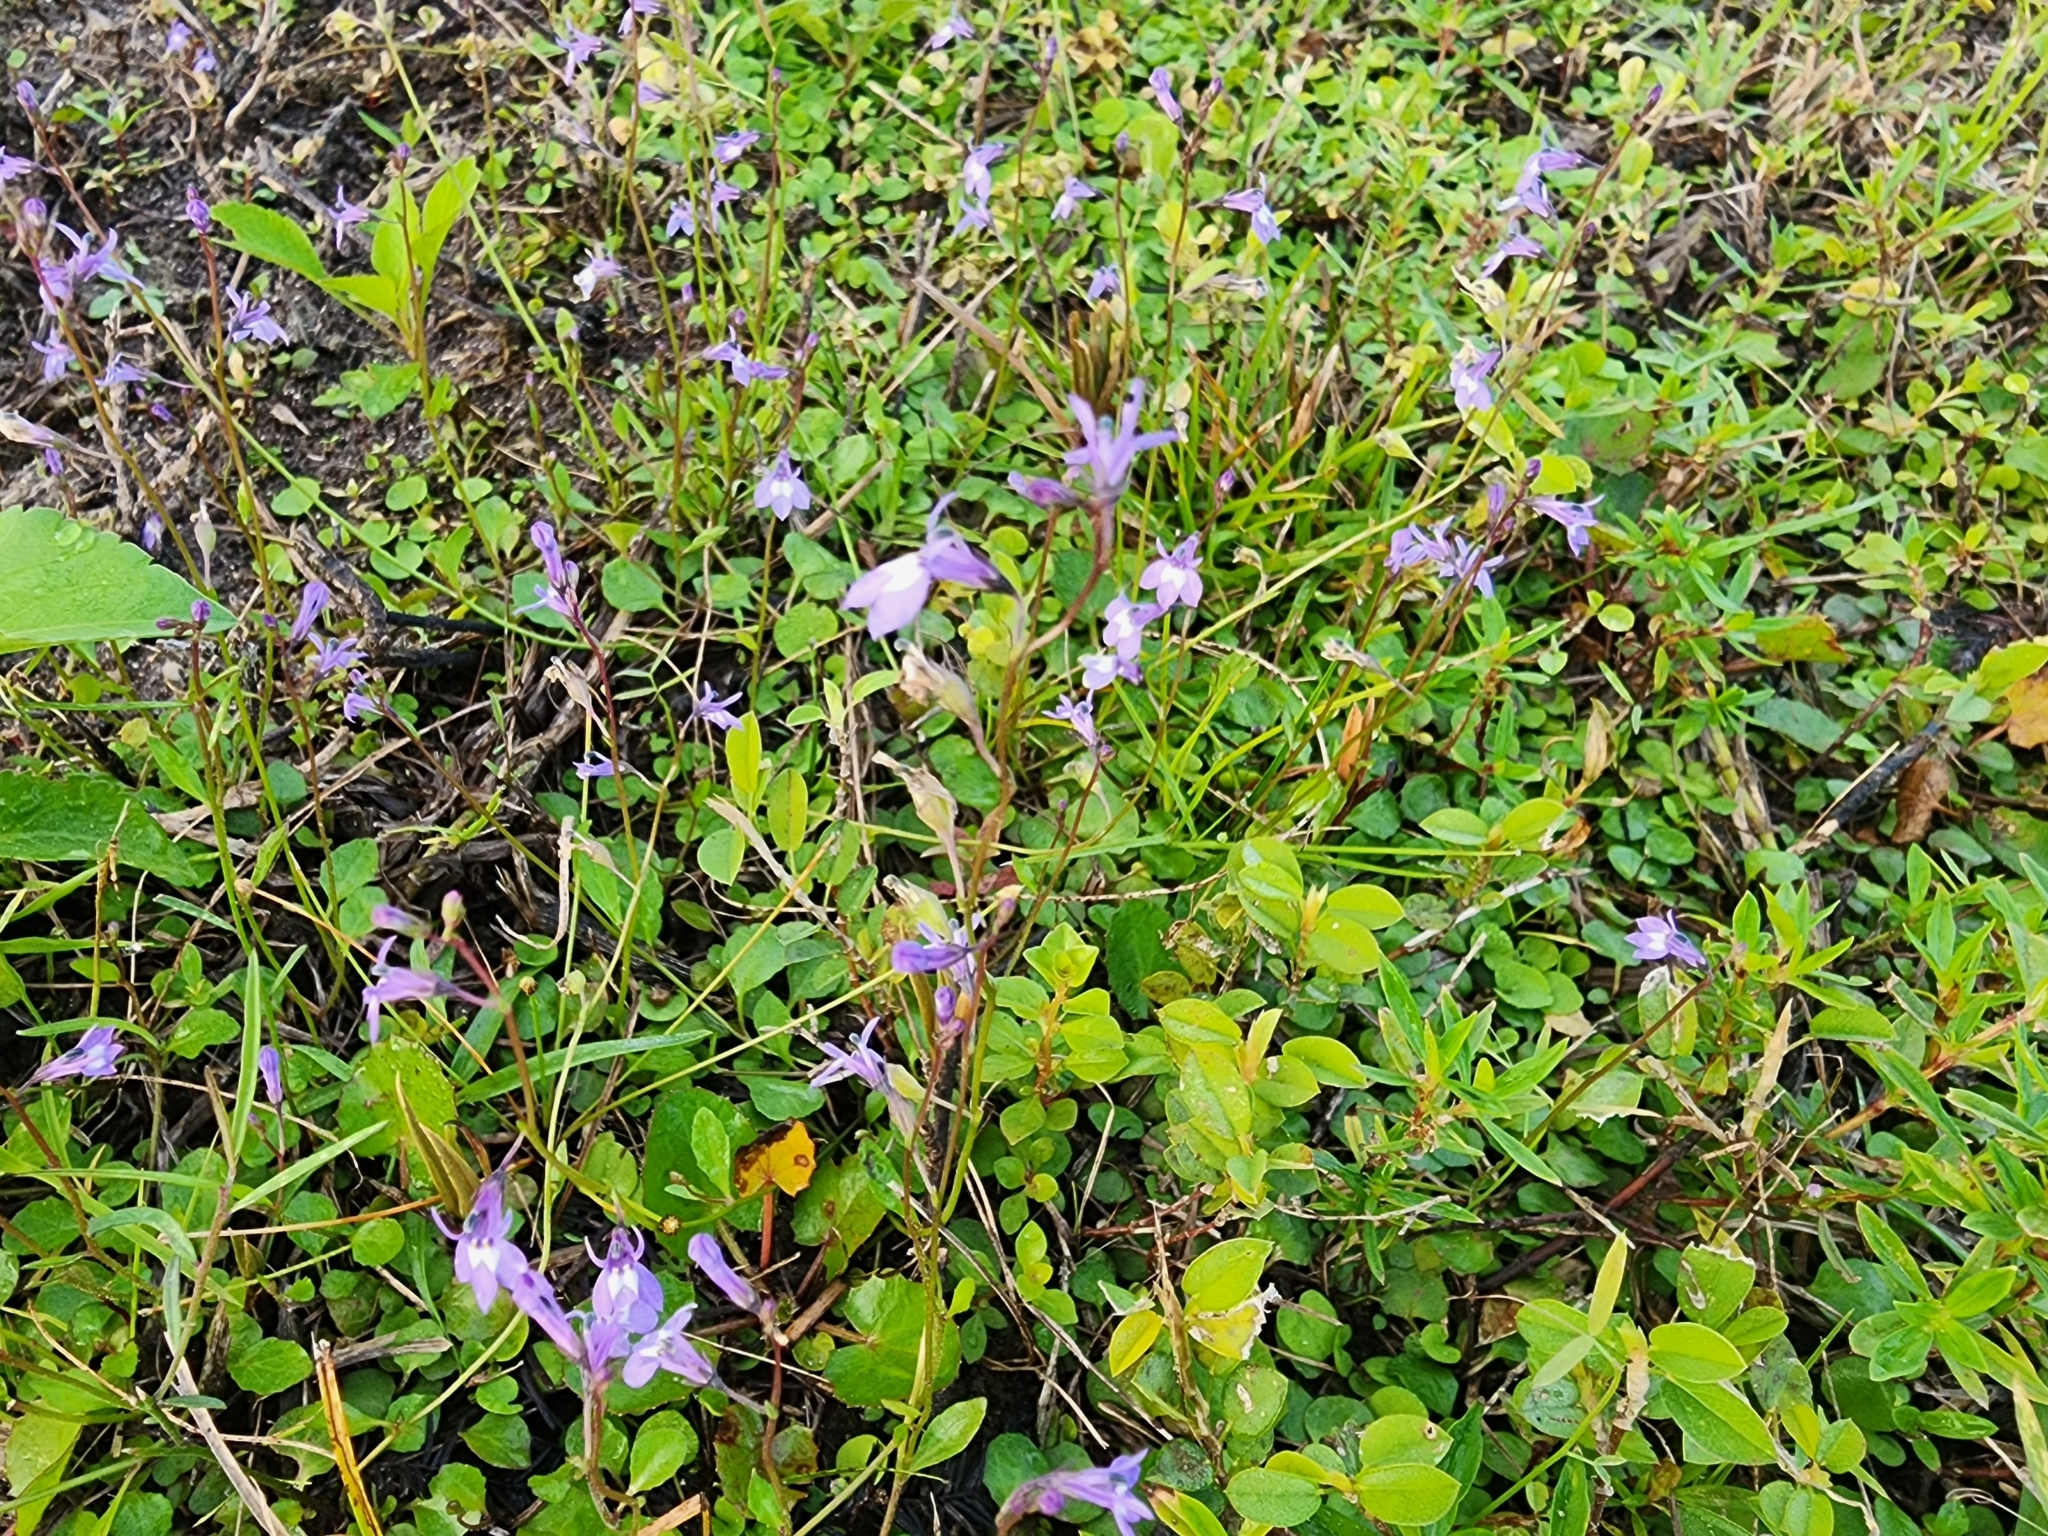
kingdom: Plantae
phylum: Tracheophyta
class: Magnoliopsida
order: Asterales
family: Campanulaceae
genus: Lobelia
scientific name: Lobelia feayana
